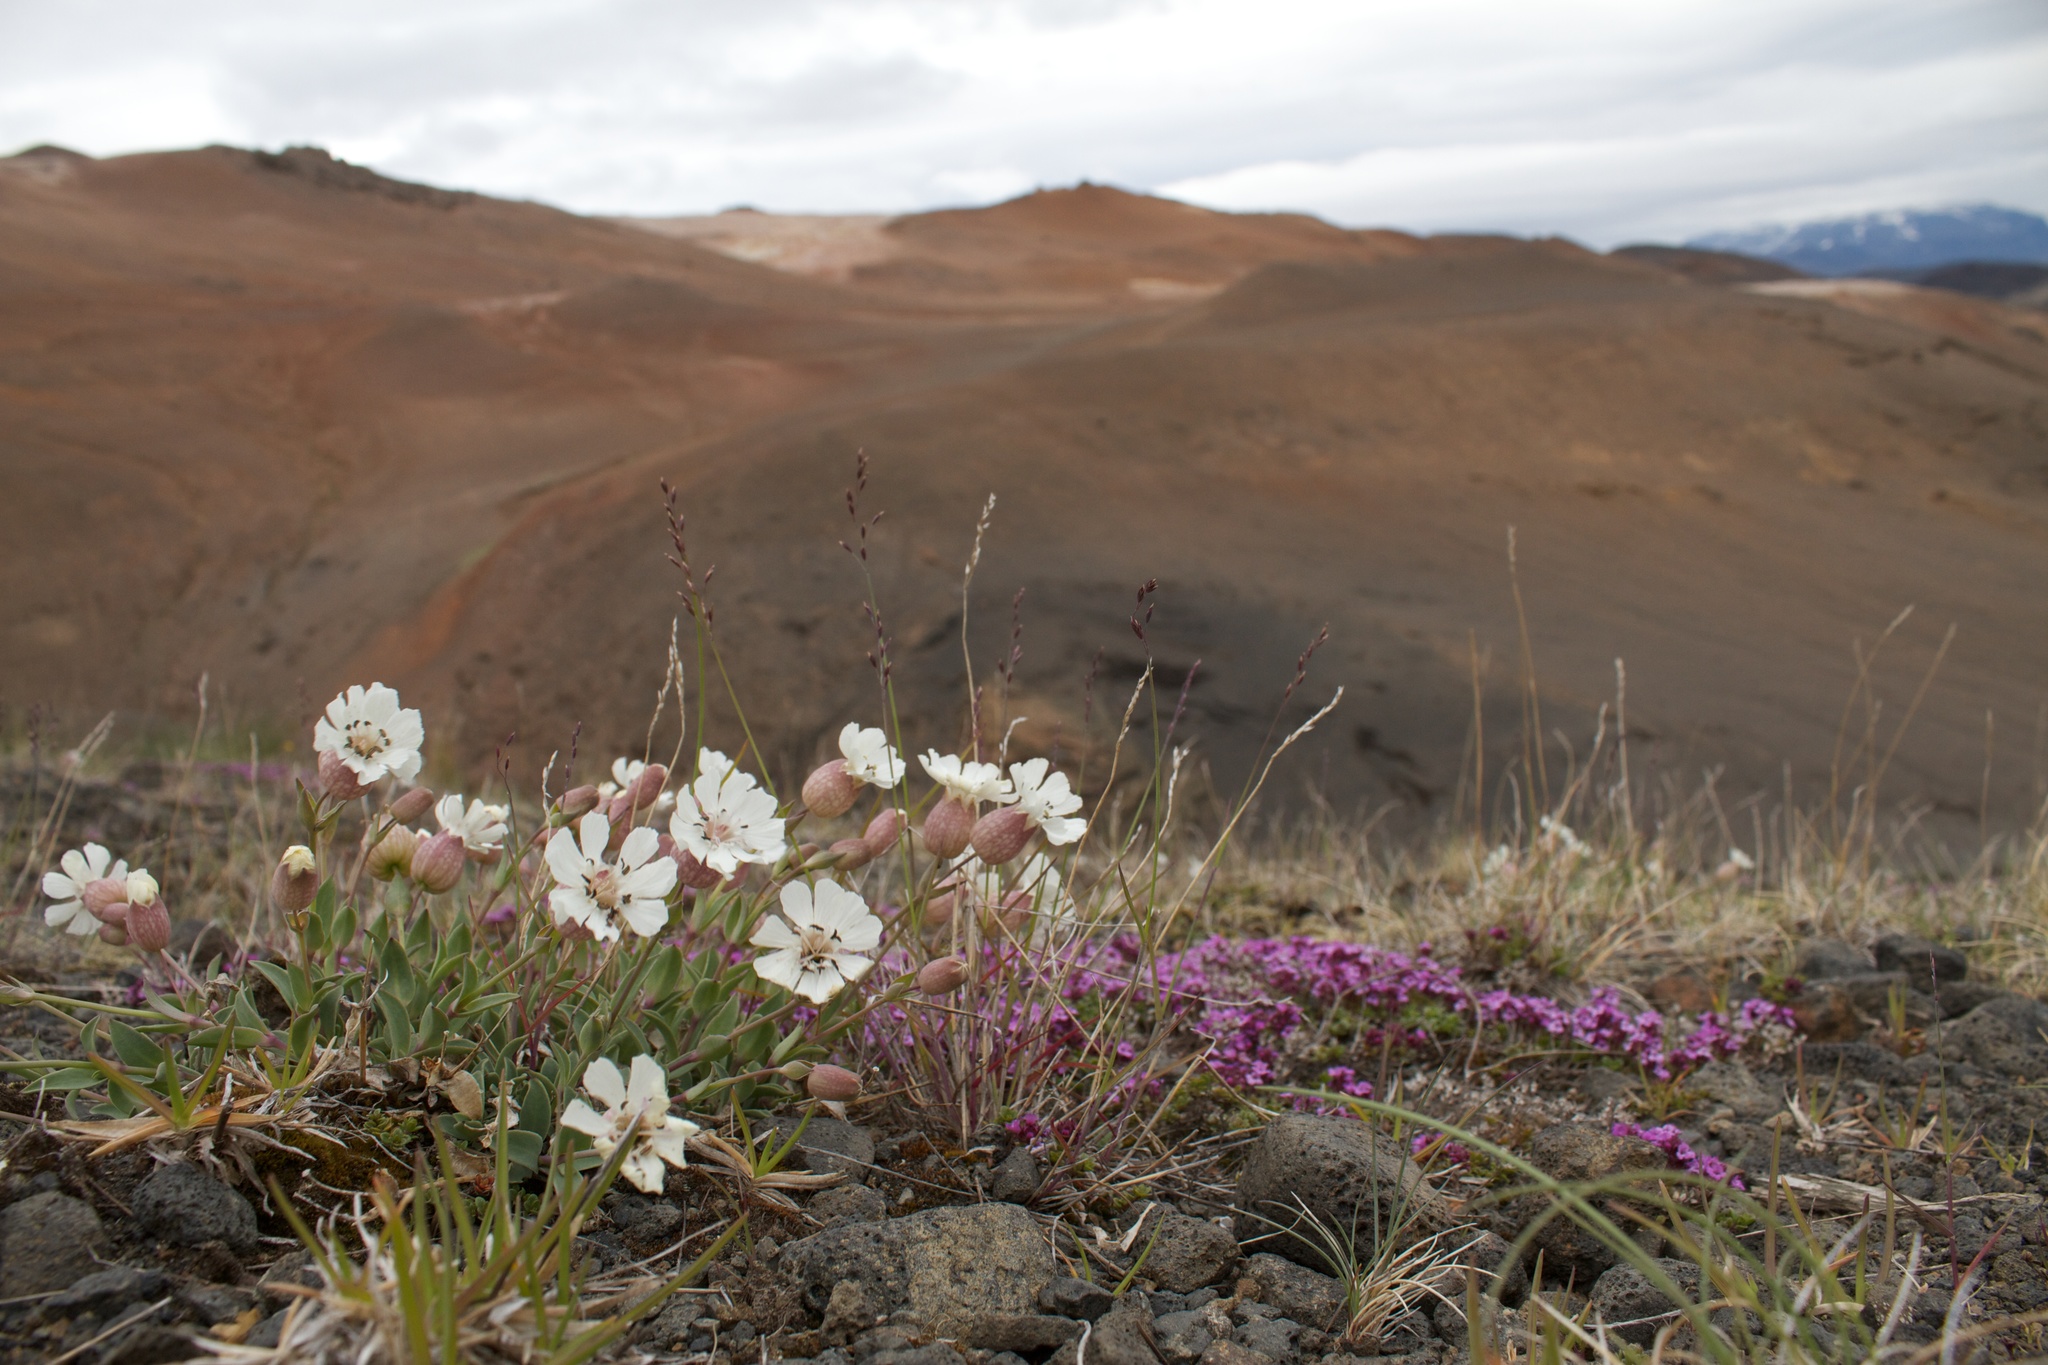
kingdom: Plantae
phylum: Tracheophyta
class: Magnoliopsida
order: Caryophyllales
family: Caryophyllaceae
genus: Silene
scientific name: Silene uniflora
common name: Sea campion
